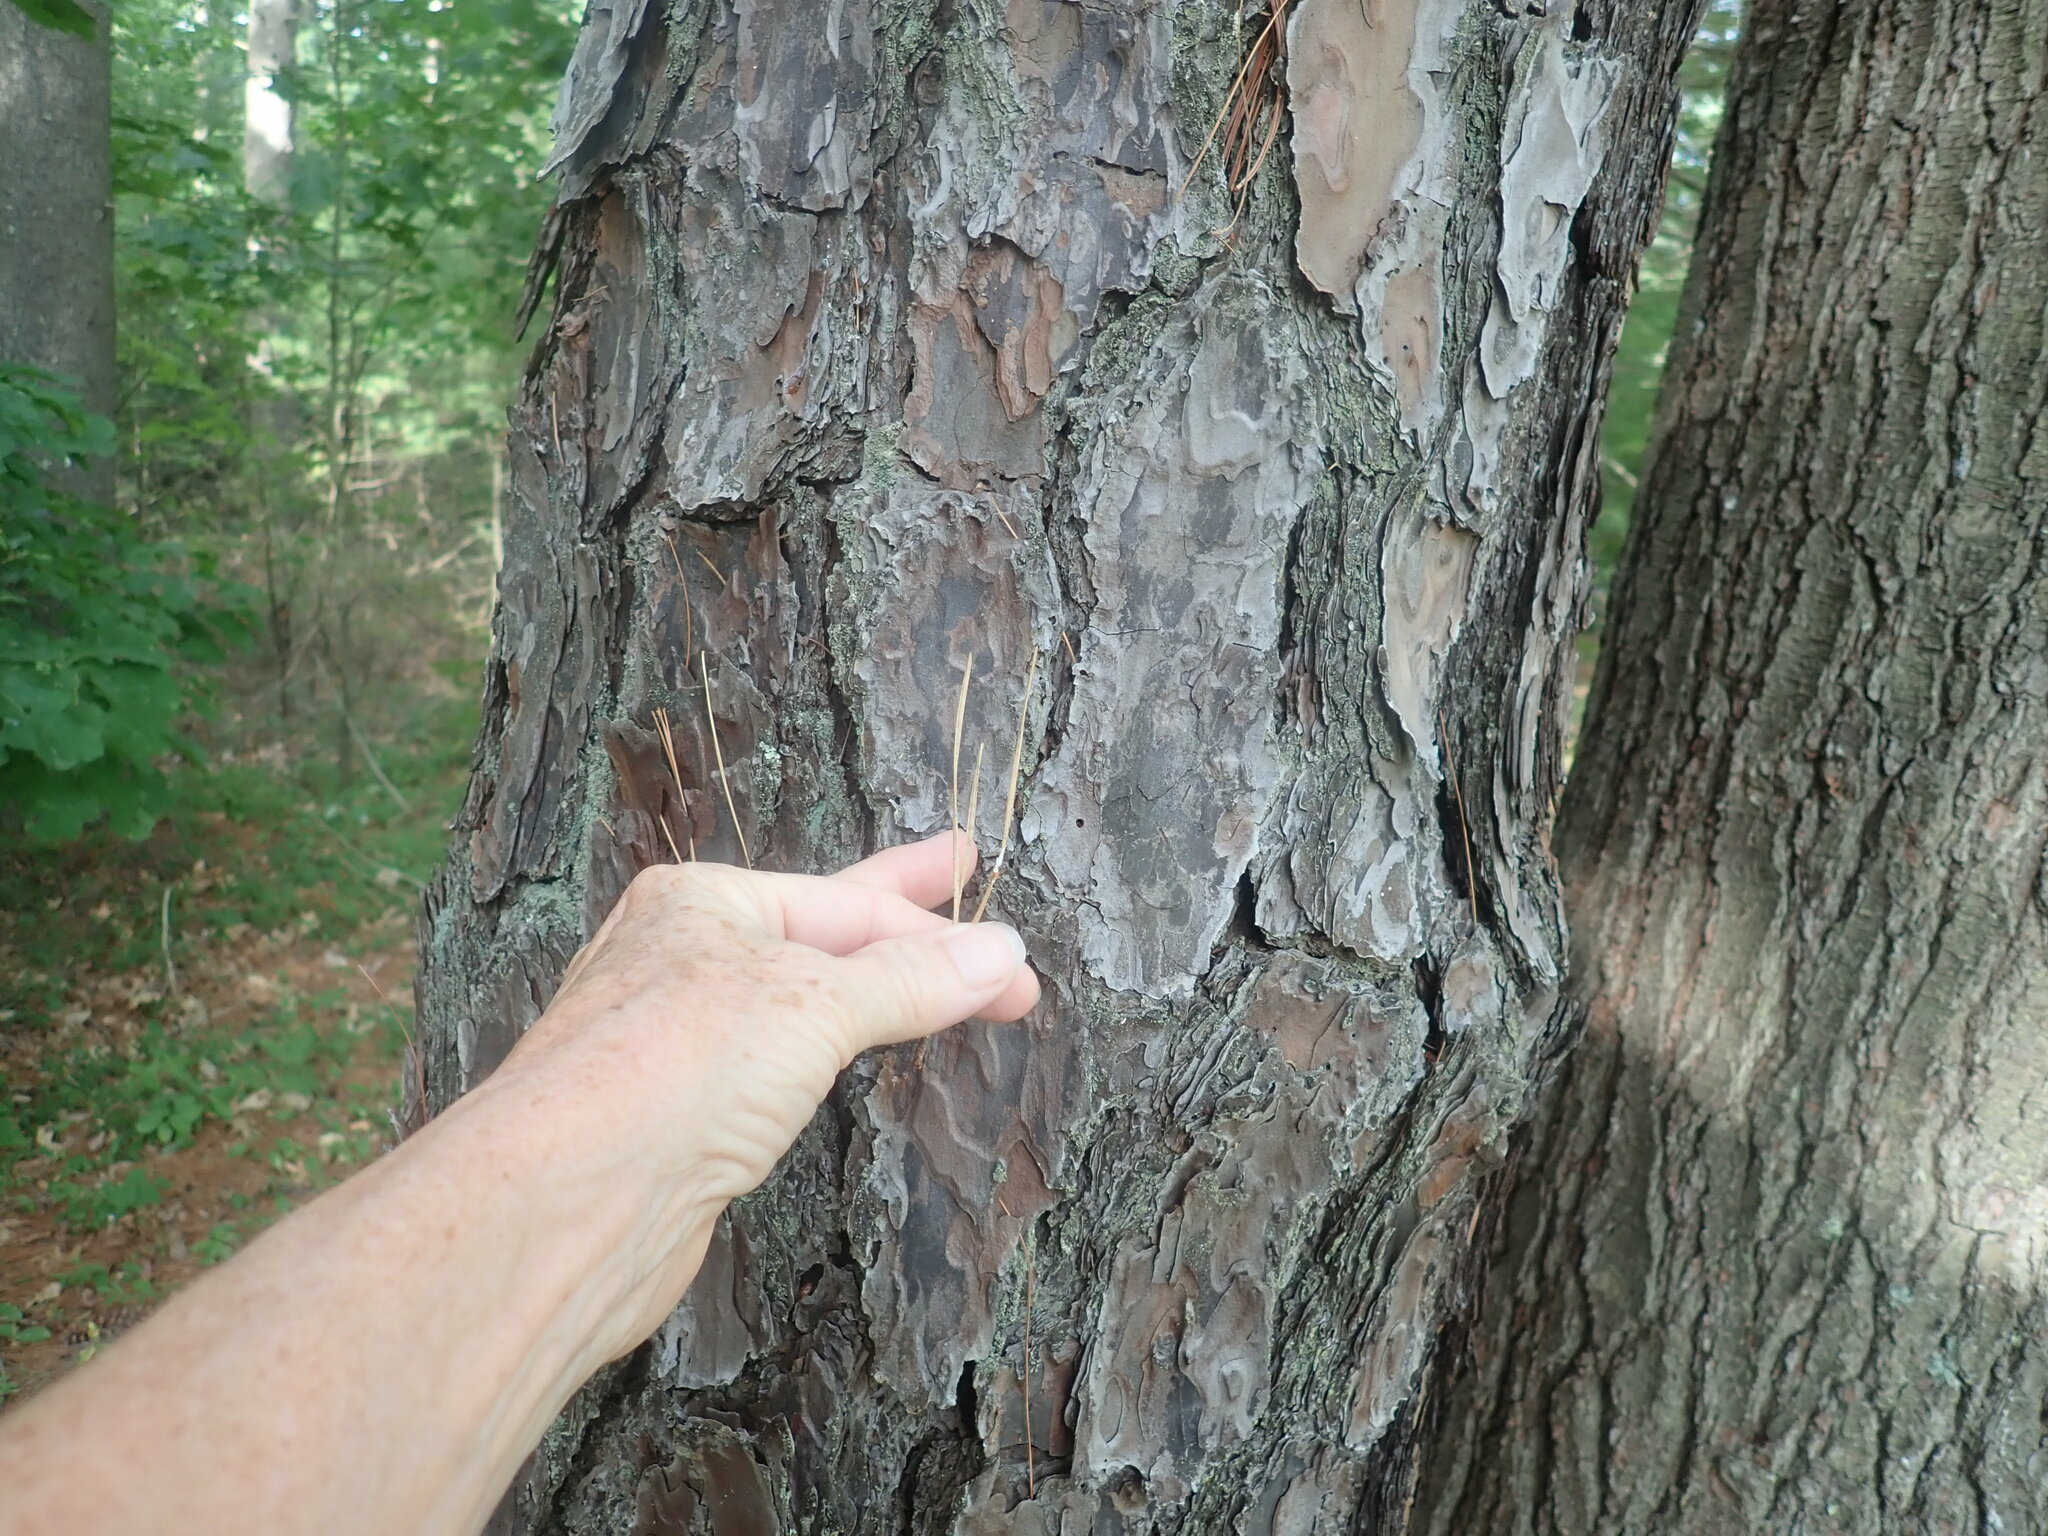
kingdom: Plantae
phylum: Tracheophyta
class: Pinopsida
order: Pinales
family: Pinaceae
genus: Pinus
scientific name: Pinus rigida
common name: Pitch pine
